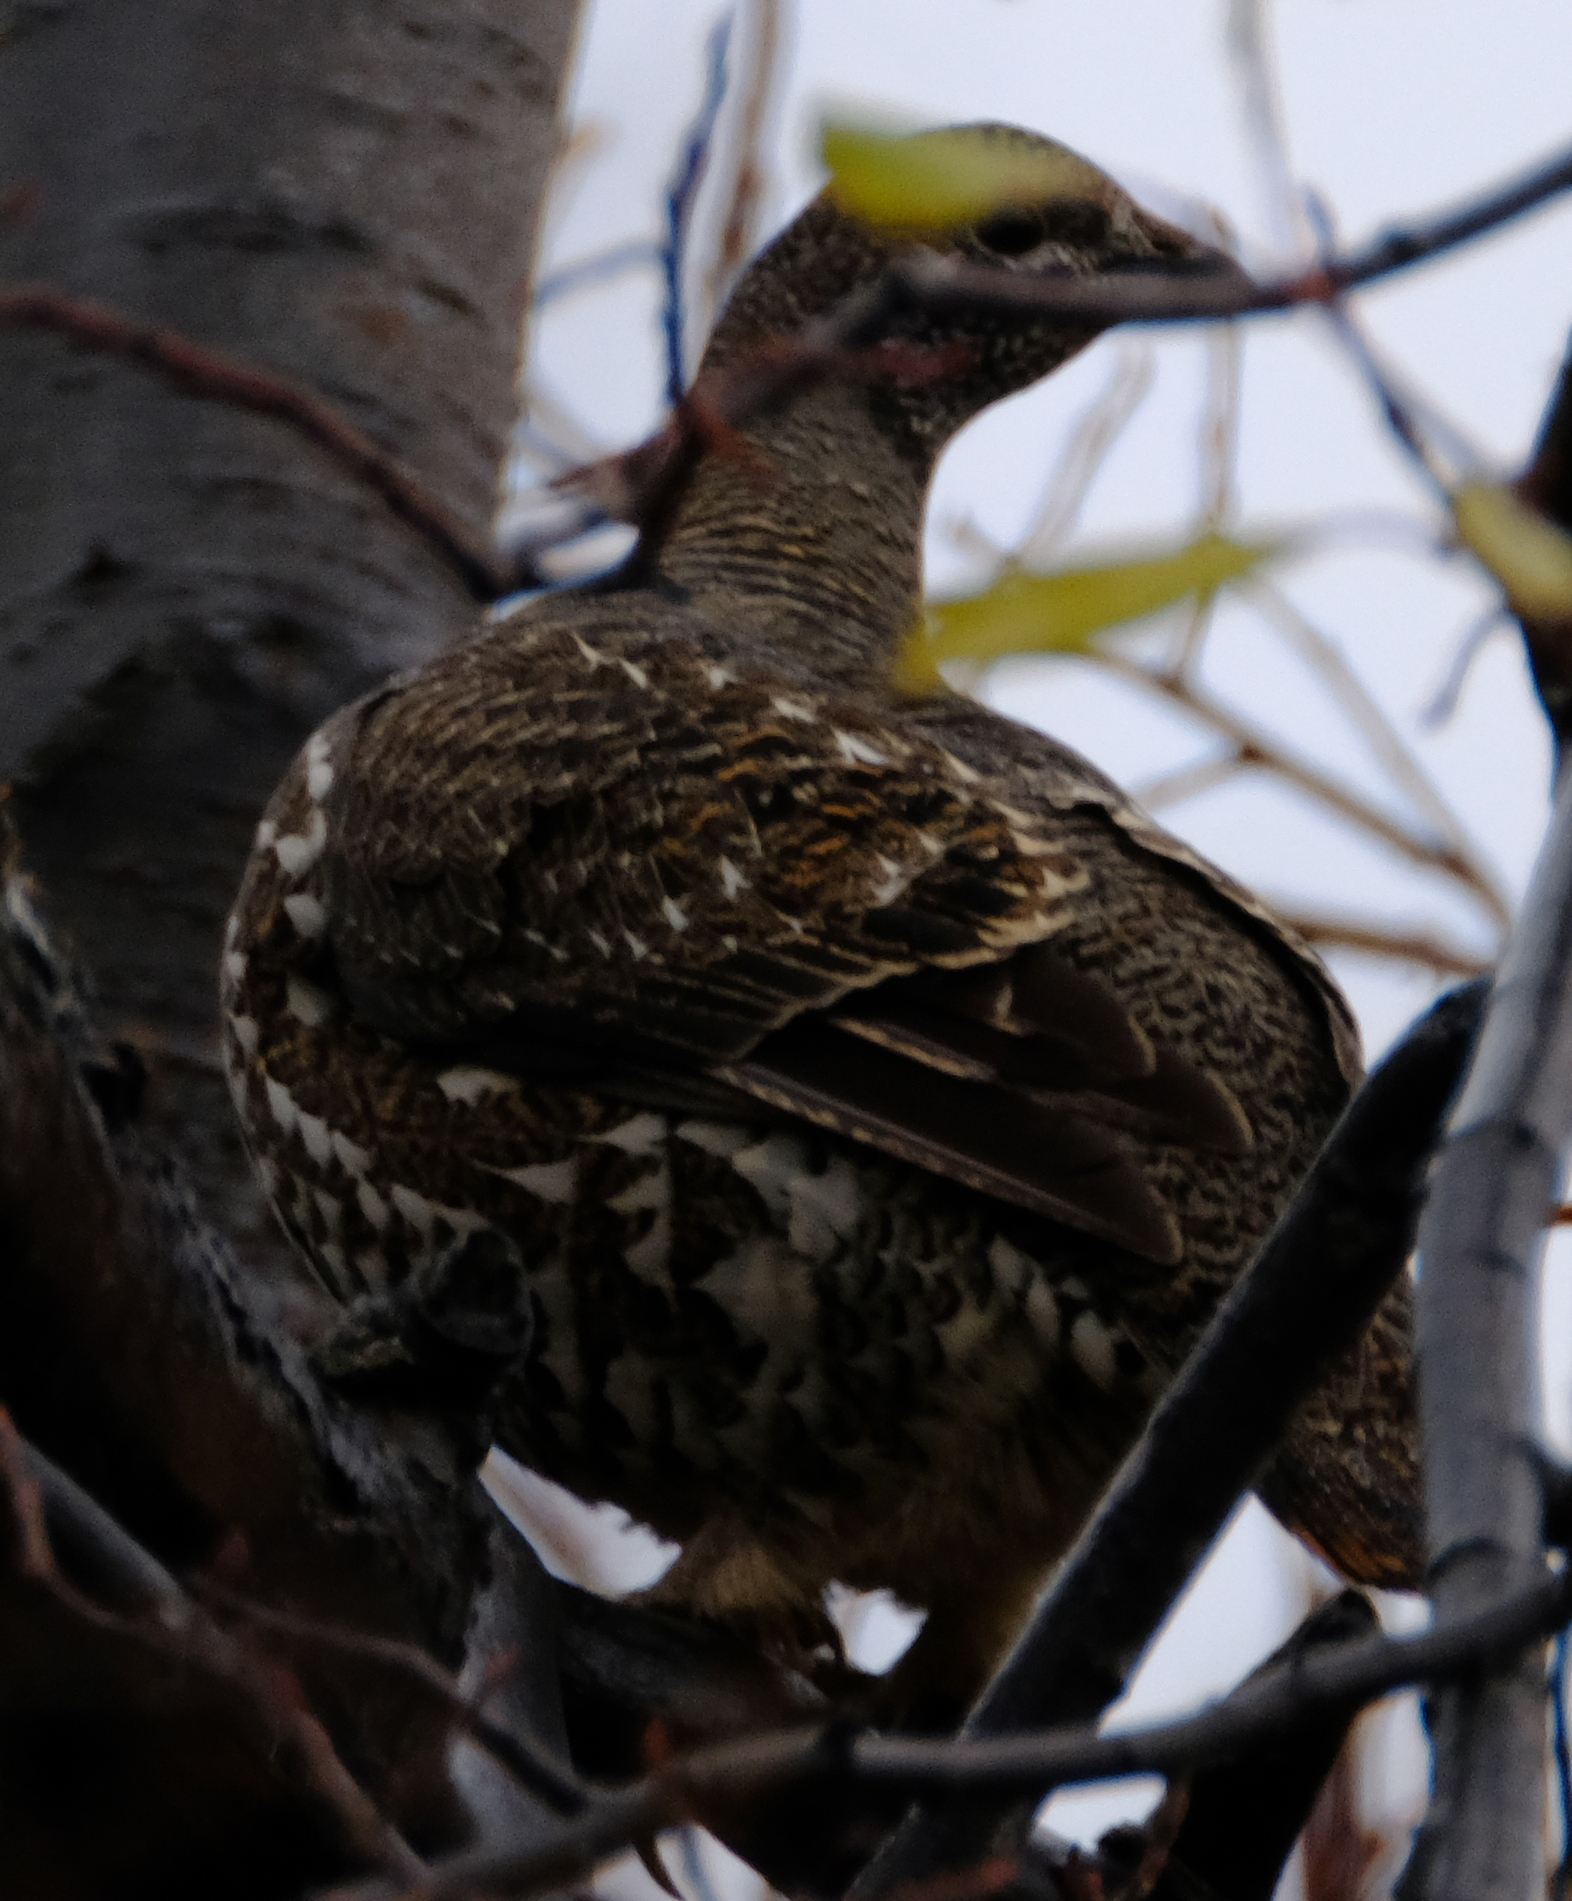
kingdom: Animalia
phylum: Chordata
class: Aves
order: Galliformes
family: Phasianidae
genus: Canachites
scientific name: Canachites canadensis
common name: Spruce grouse
